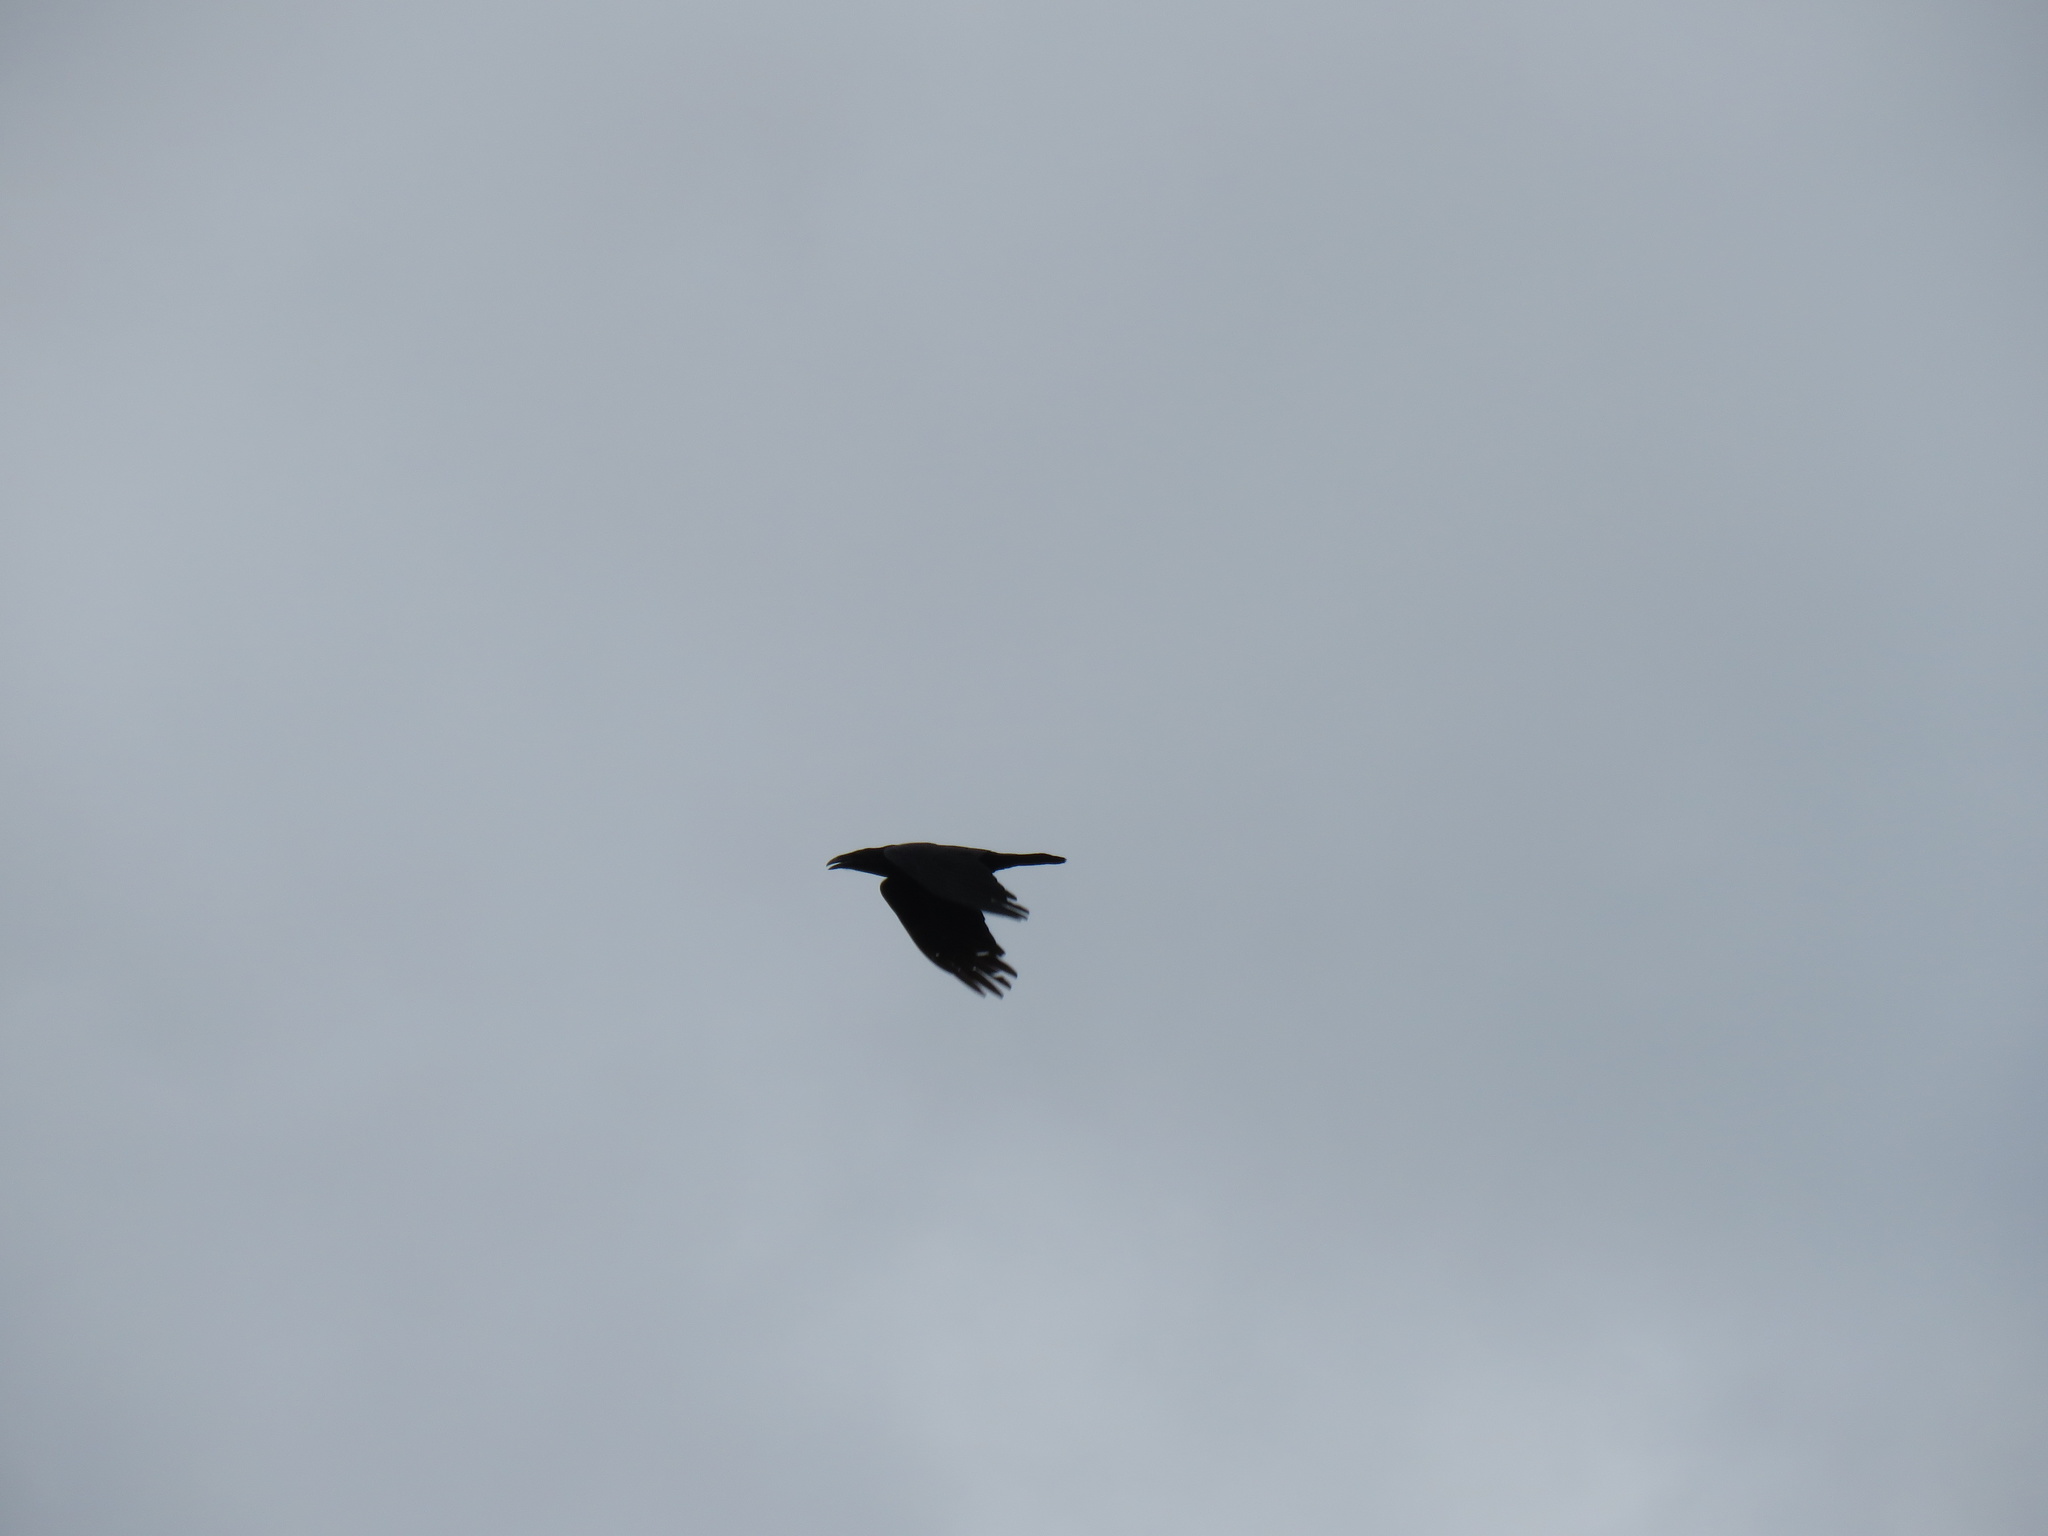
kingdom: Animalia
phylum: Chordata
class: Aves
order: Passeriformes
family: Corvidae
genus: Corvus
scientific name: Corvus corax
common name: Common raven
